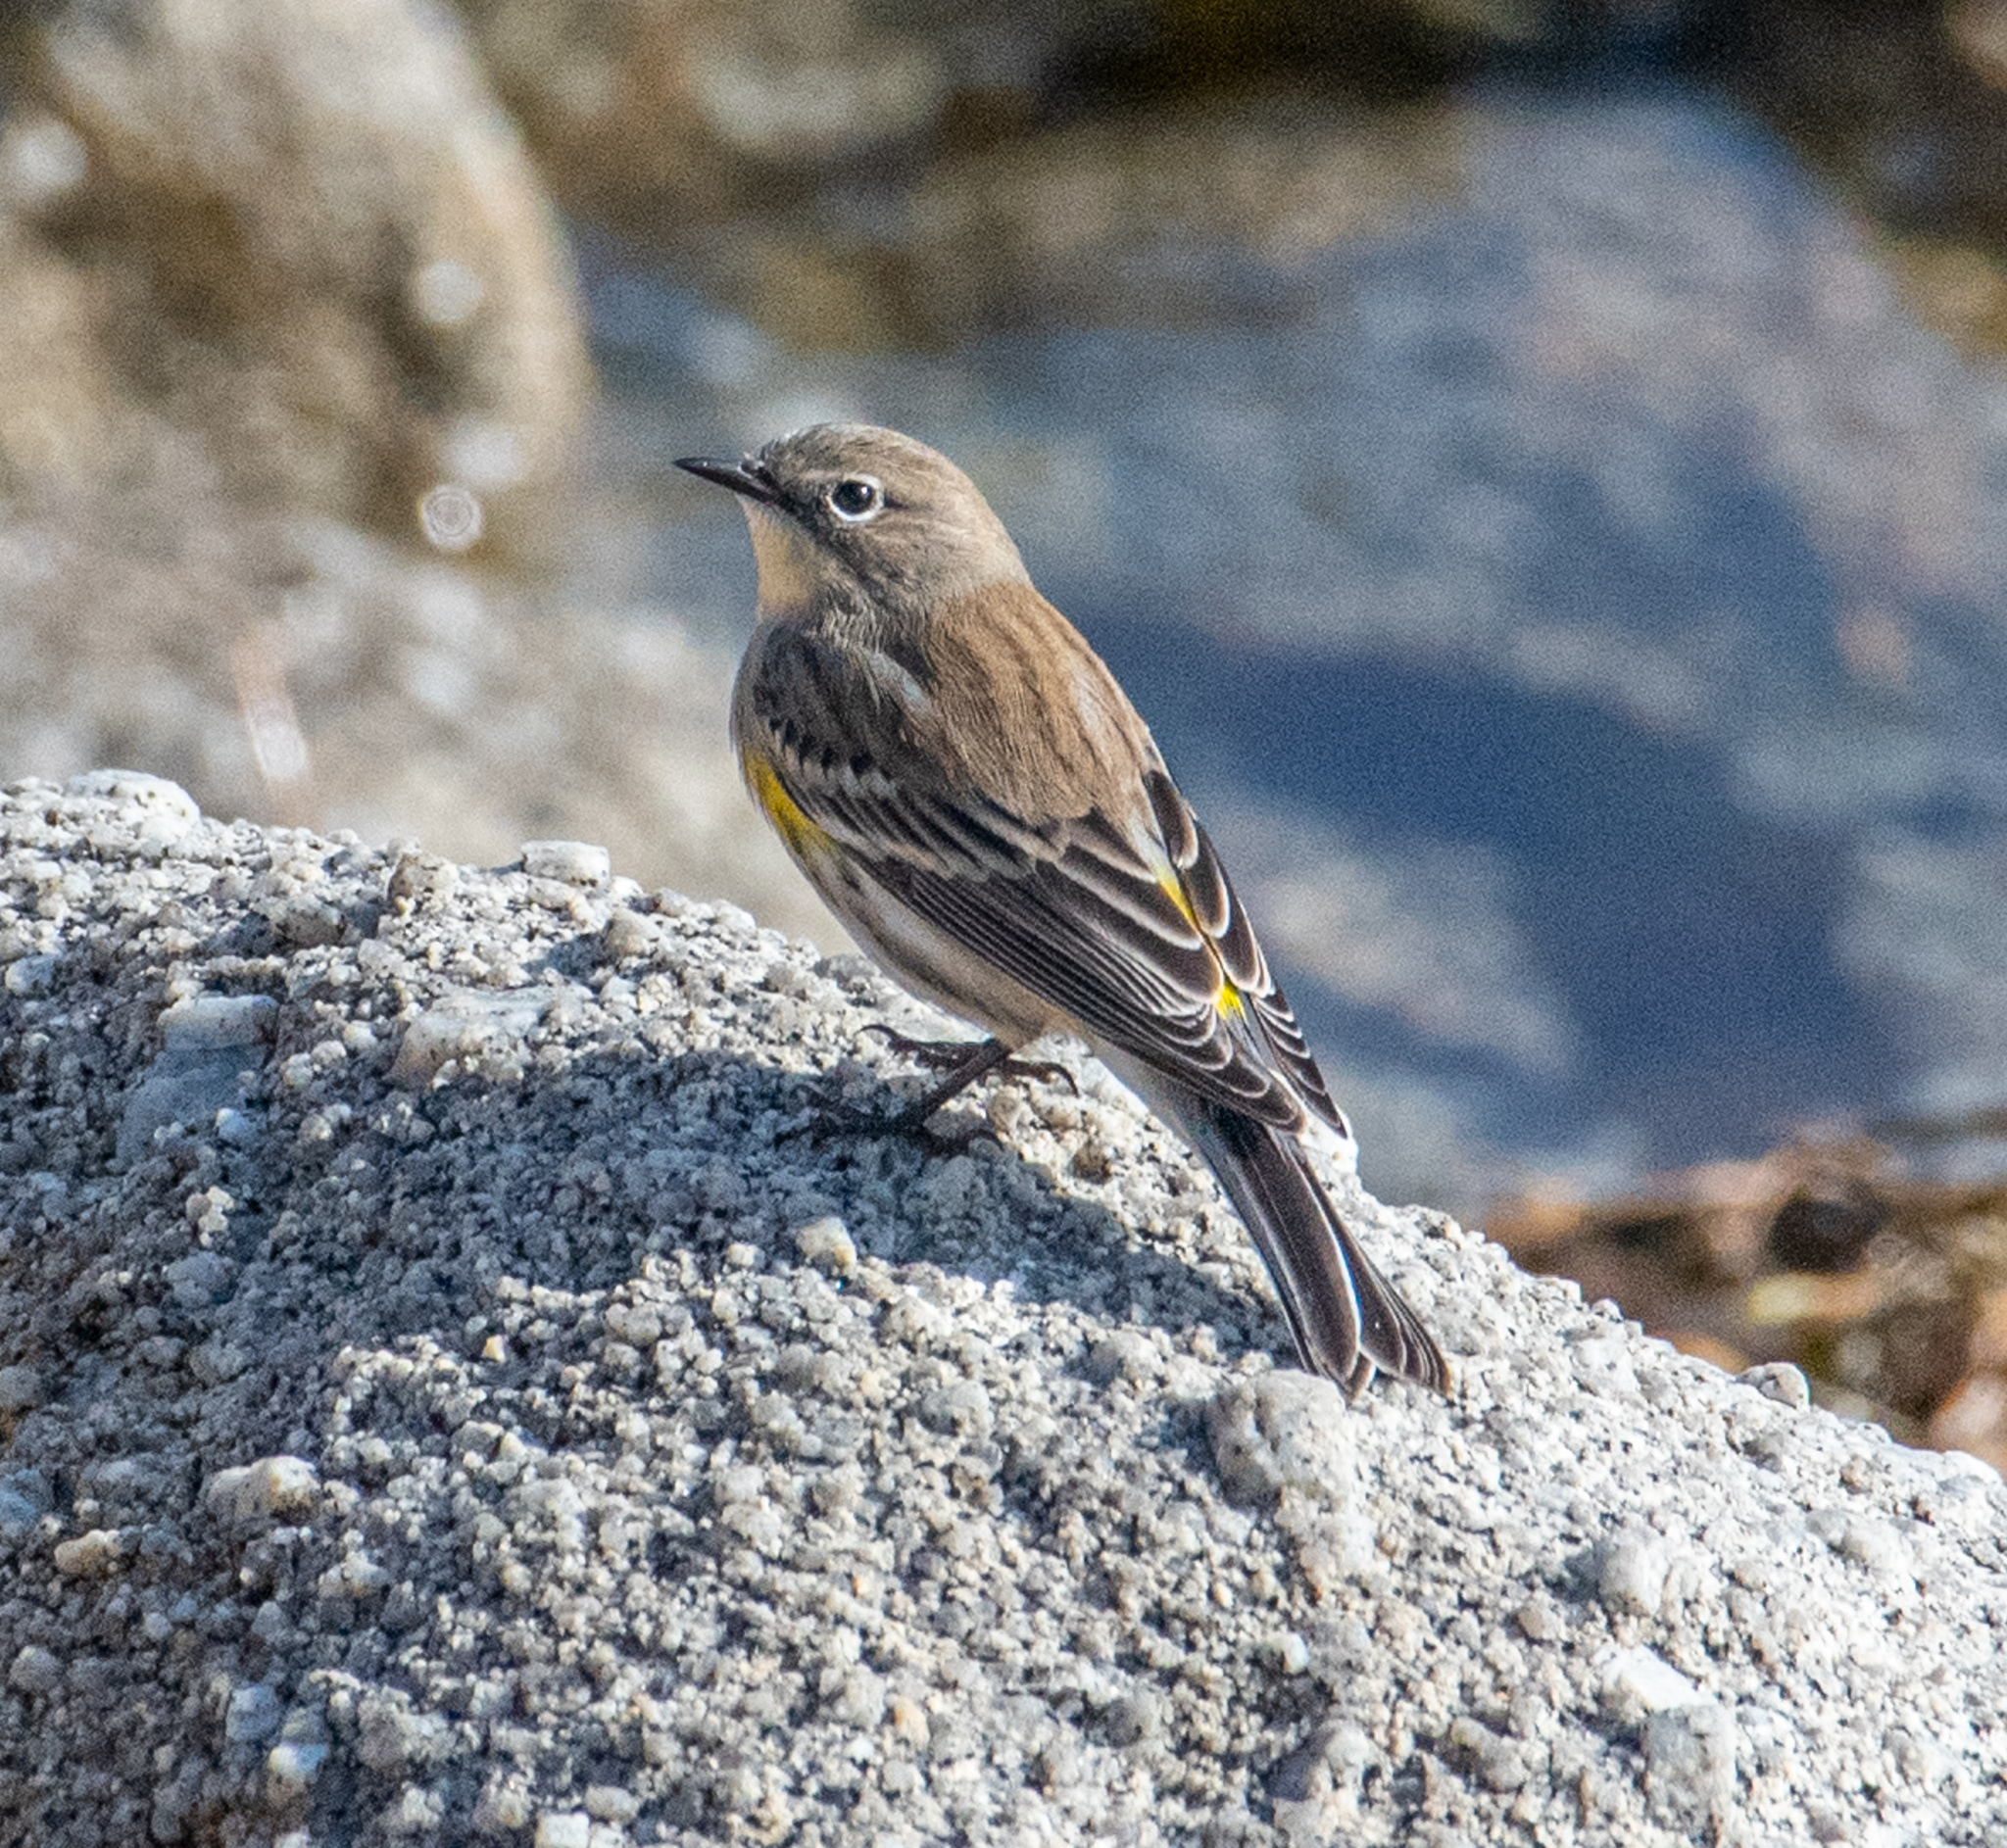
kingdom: Animalia
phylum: Chordata
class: Aves
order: Passeriformes
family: Parulidae
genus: Setophaga
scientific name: Setophaga coronata
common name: Myrtle warbler
